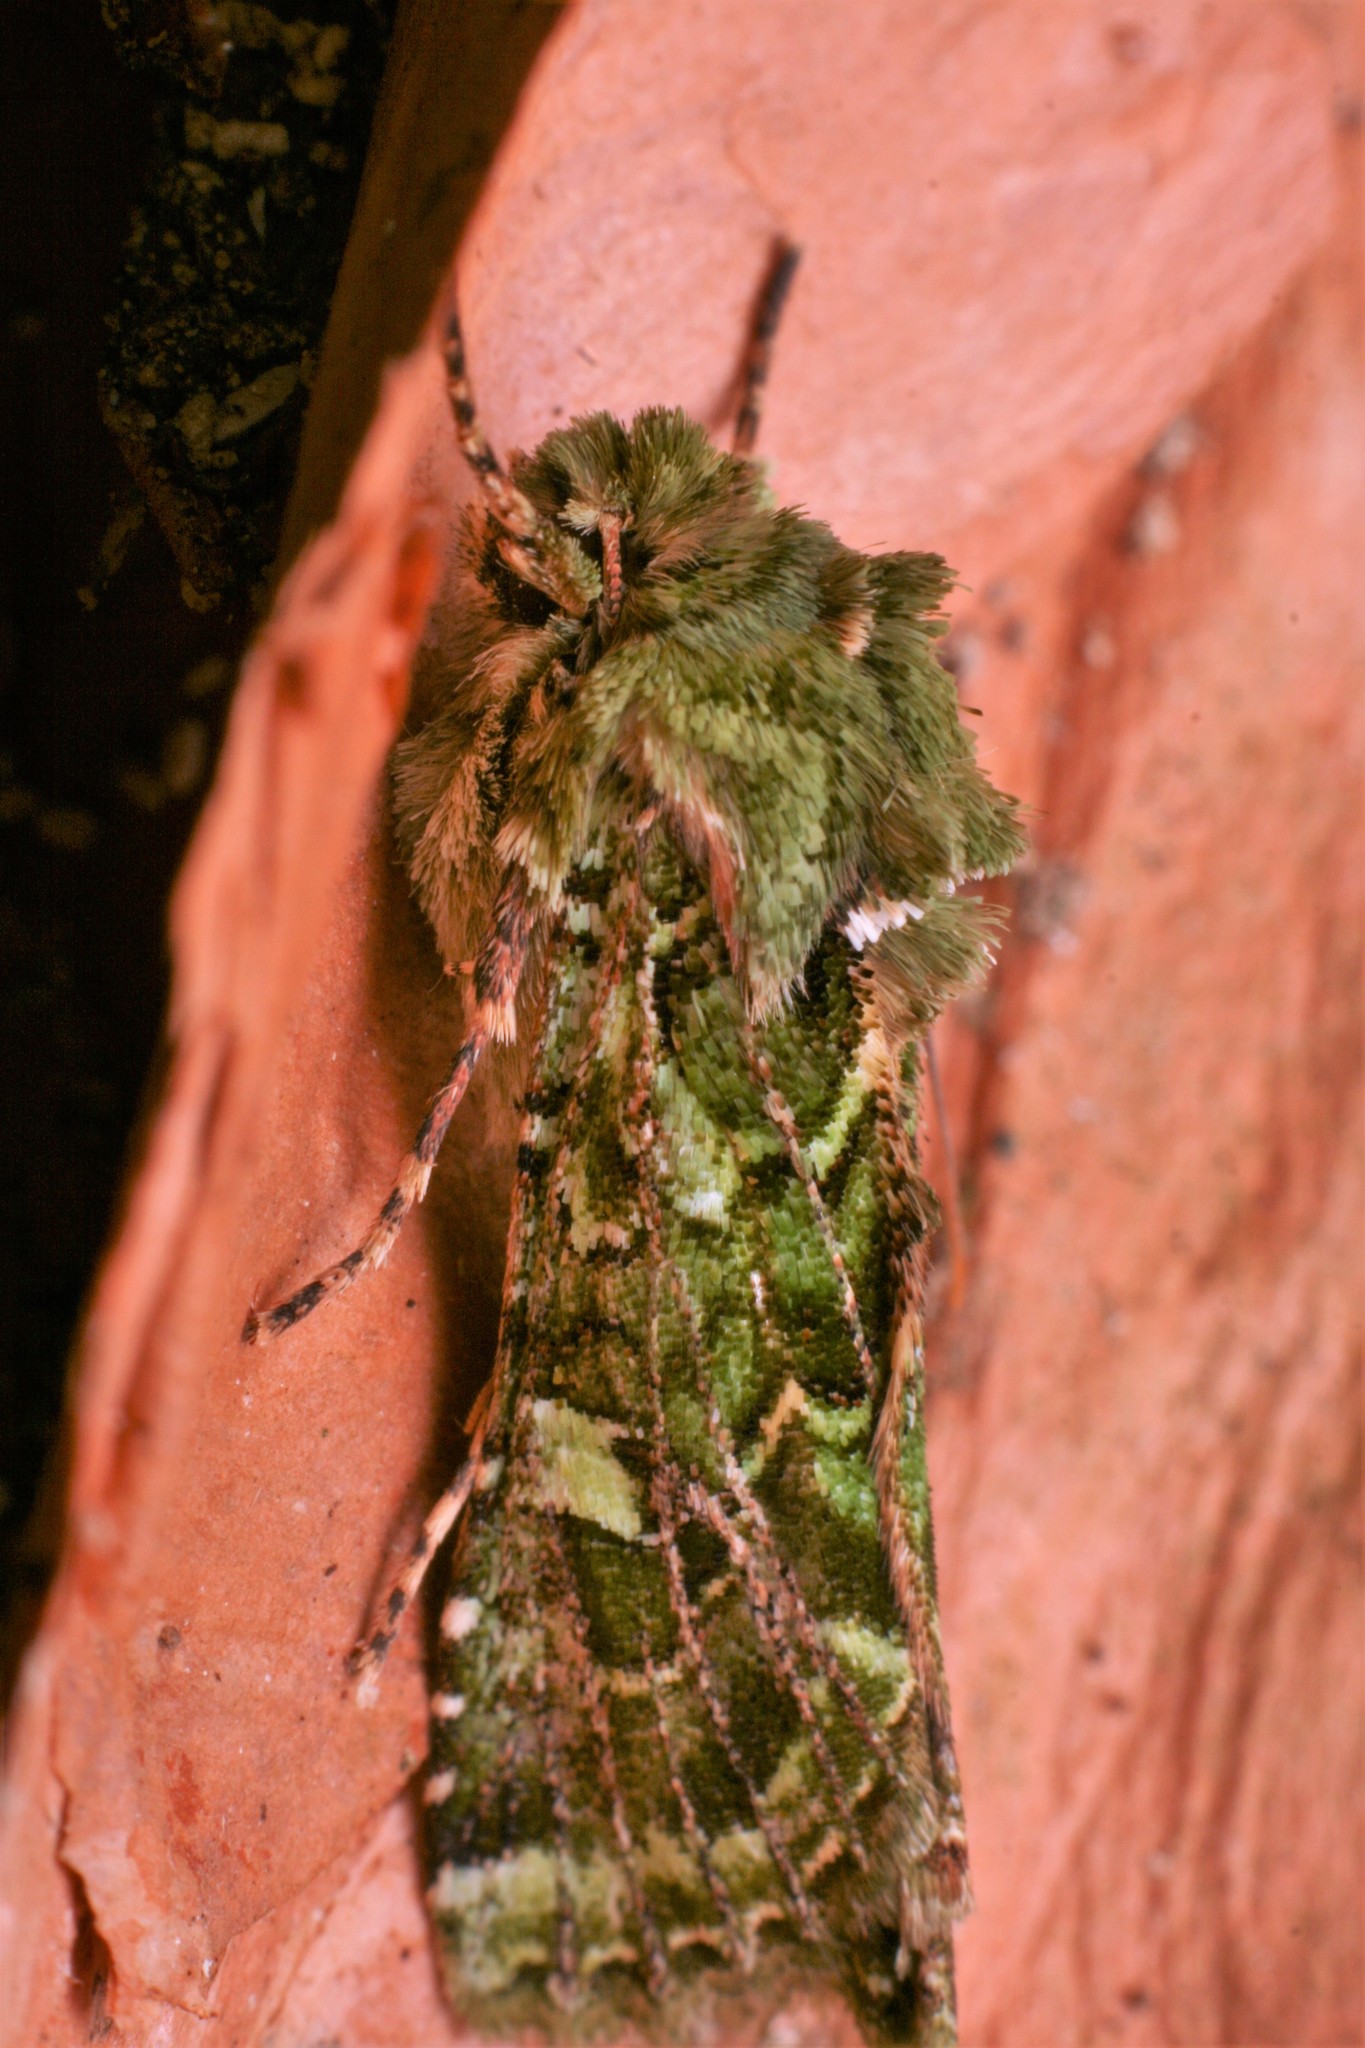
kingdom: Animalia
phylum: Arthropoda
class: Insecta
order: Lepidoptera
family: Noctuidae
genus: Feredayia
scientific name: Feredayia grammosa
